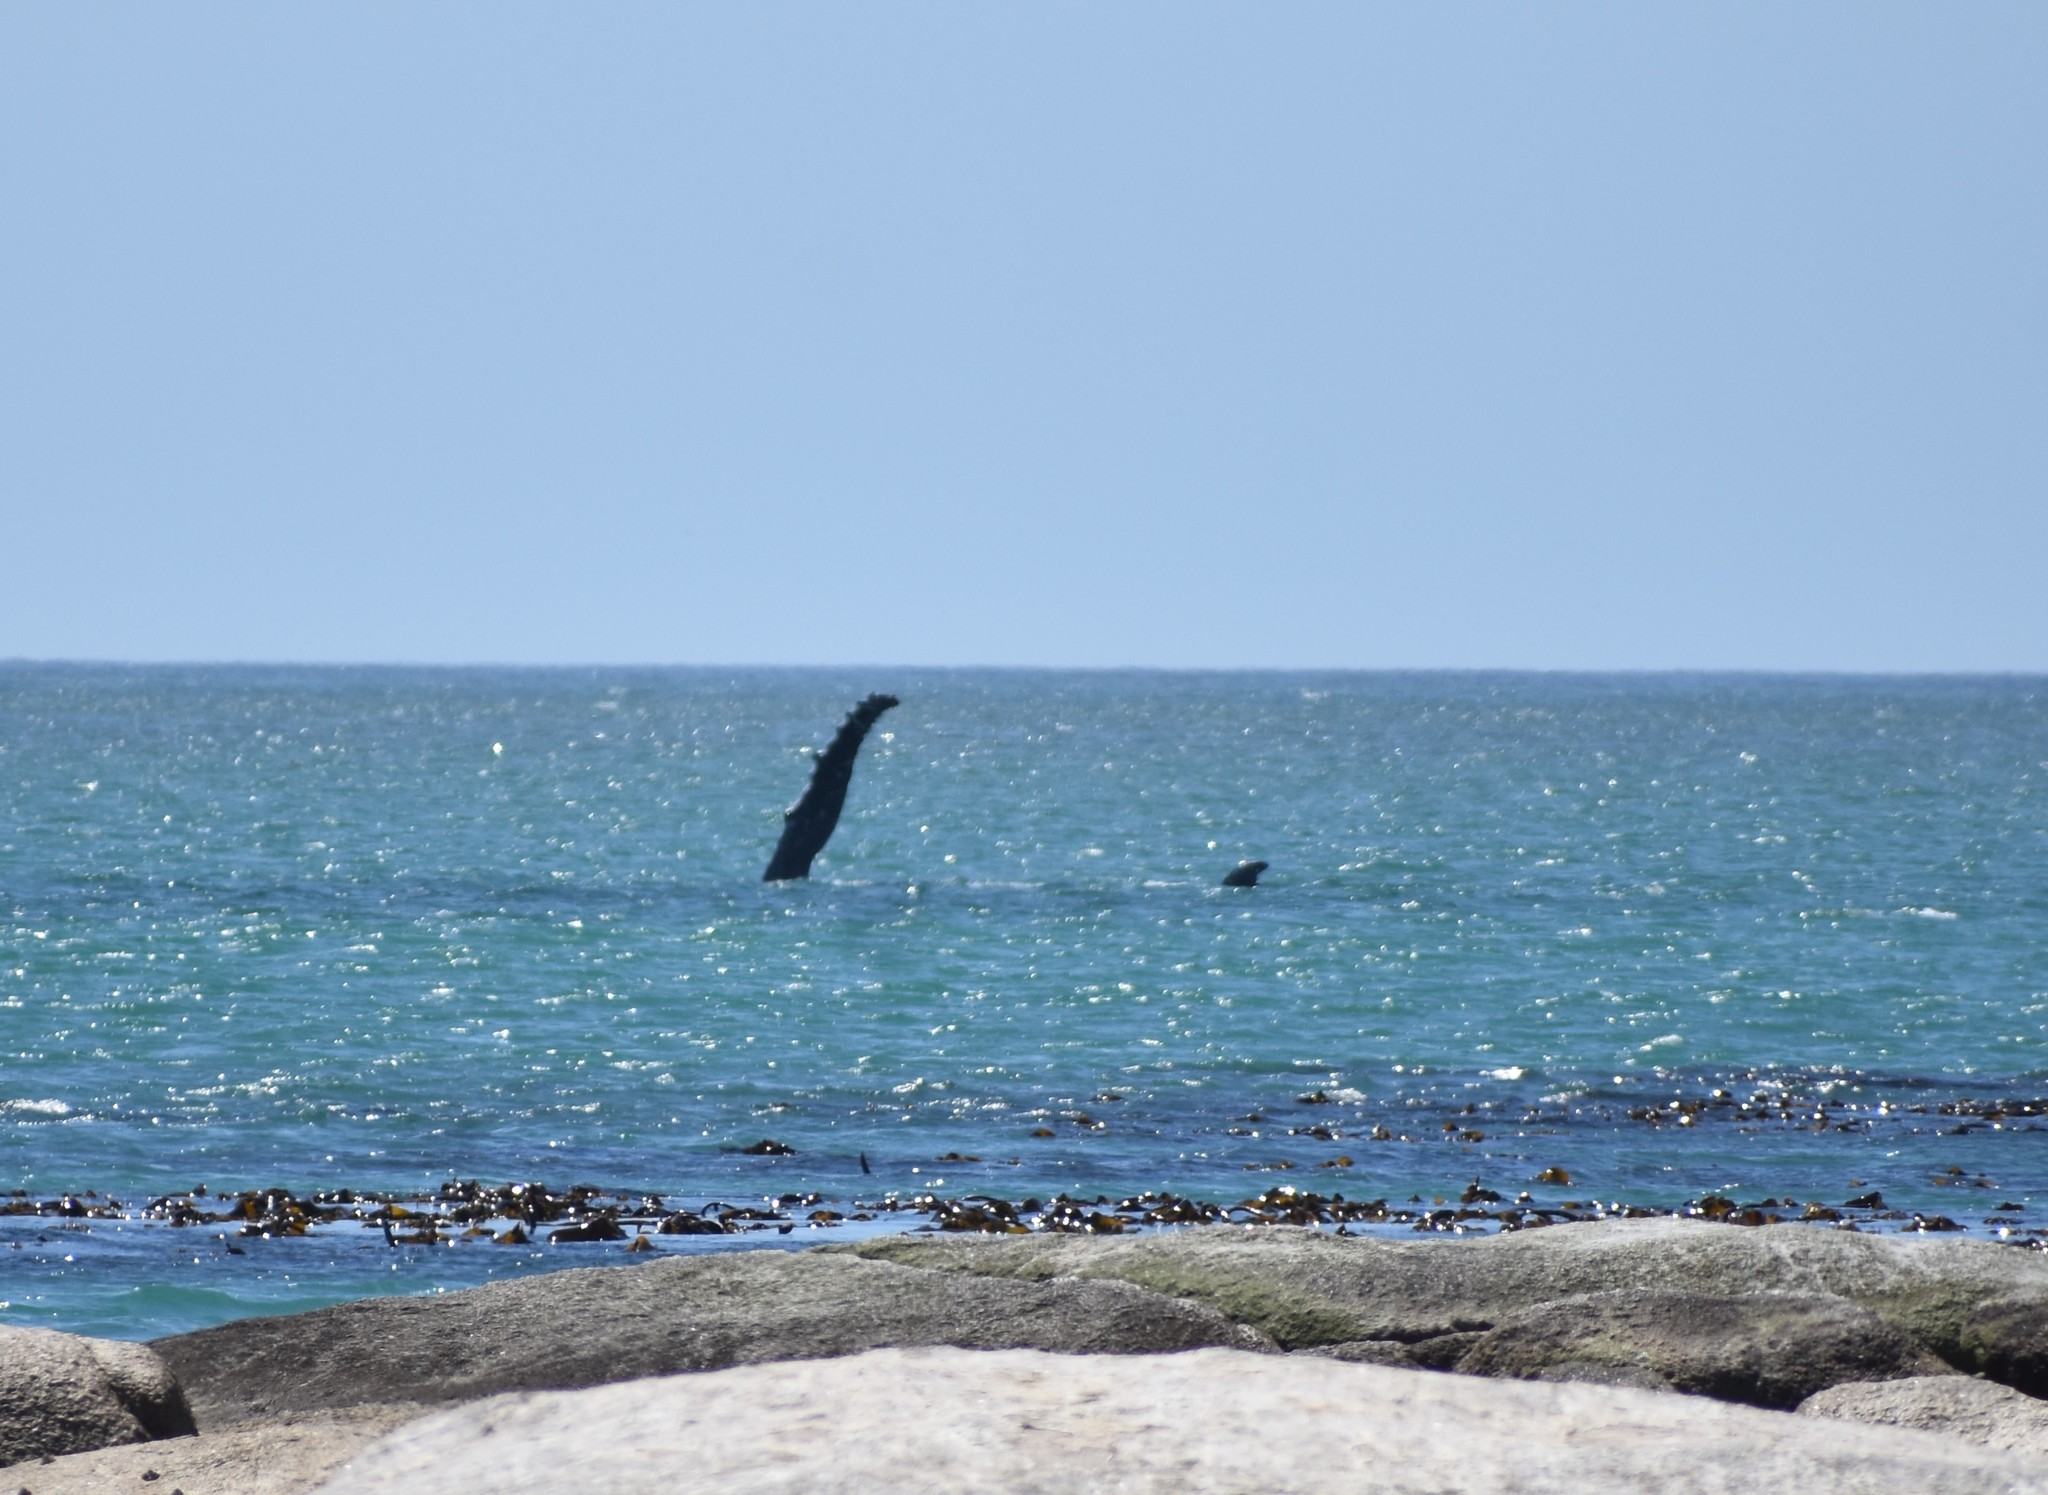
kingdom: Animalia
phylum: Chordata
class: Mammalia
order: Cetacea
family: Balaenopteridae
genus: Megaptera
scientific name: Megaptera novaeangliae
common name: Humpback whale
